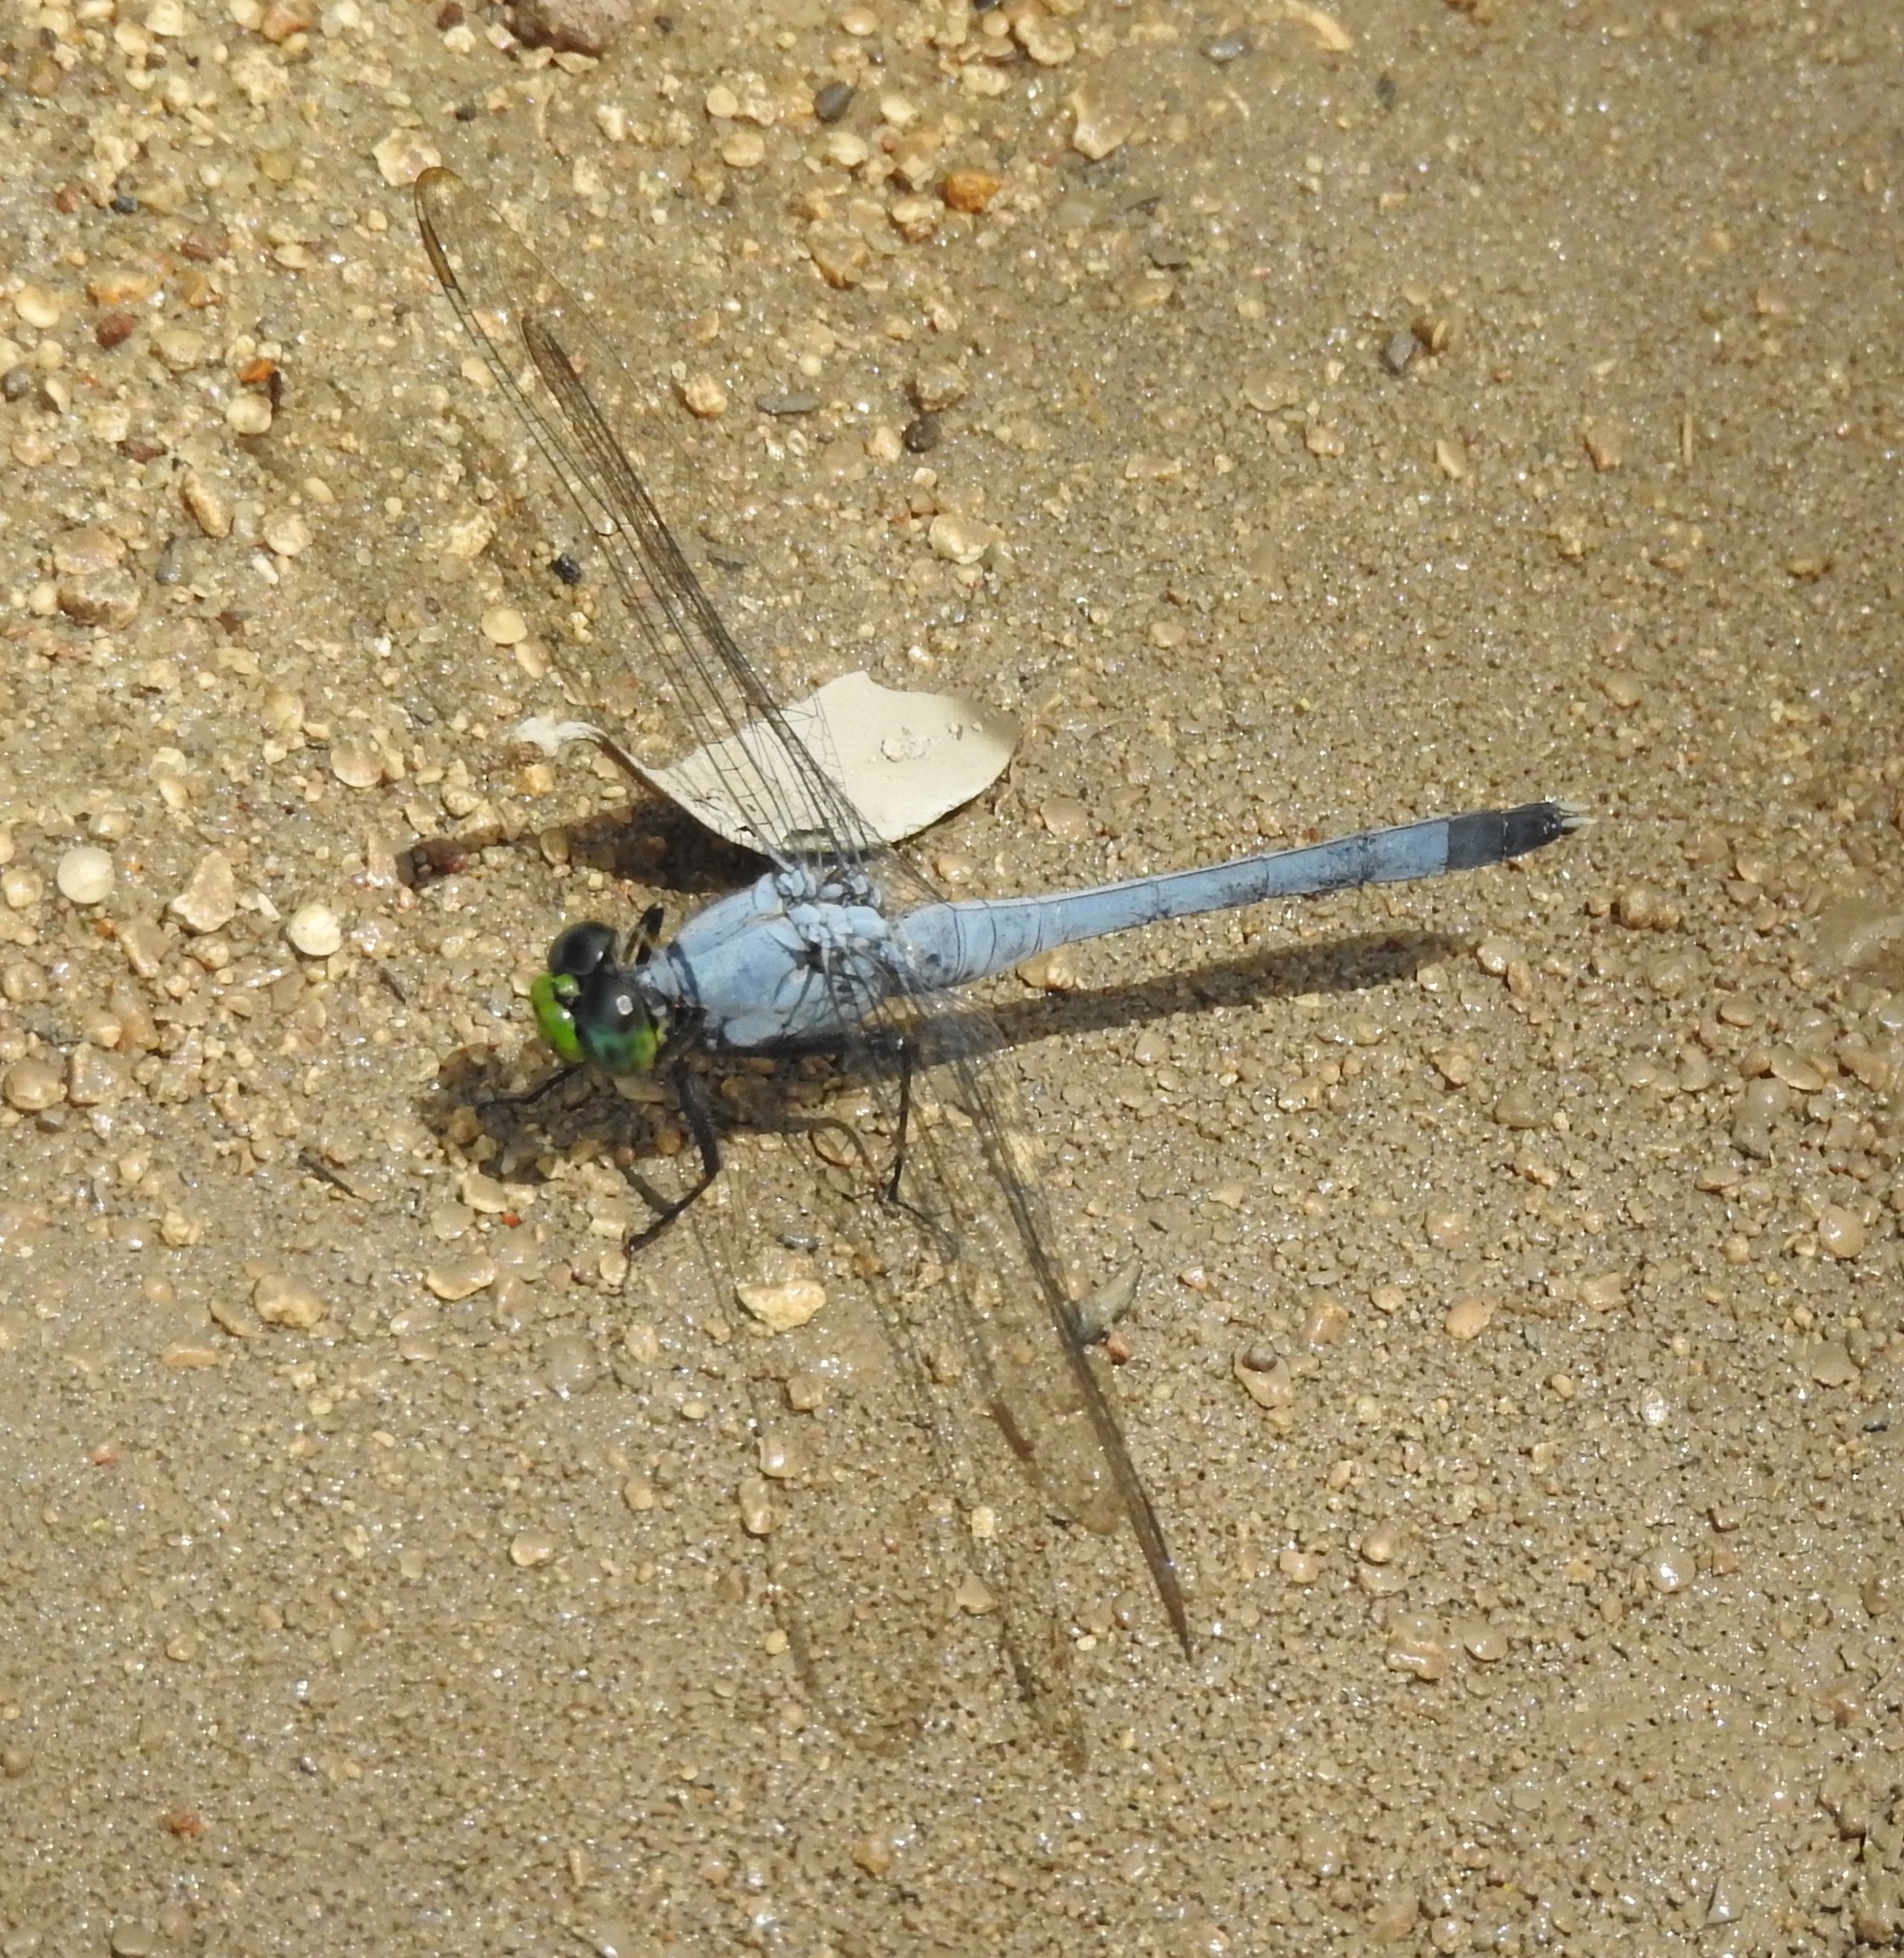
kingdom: Animalia
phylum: Arthropoda
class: Insecta
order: Odonata
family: Libellulidae
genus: Erythemis
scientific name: Erythemis simplicicollis
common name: Eastern pondhawk
